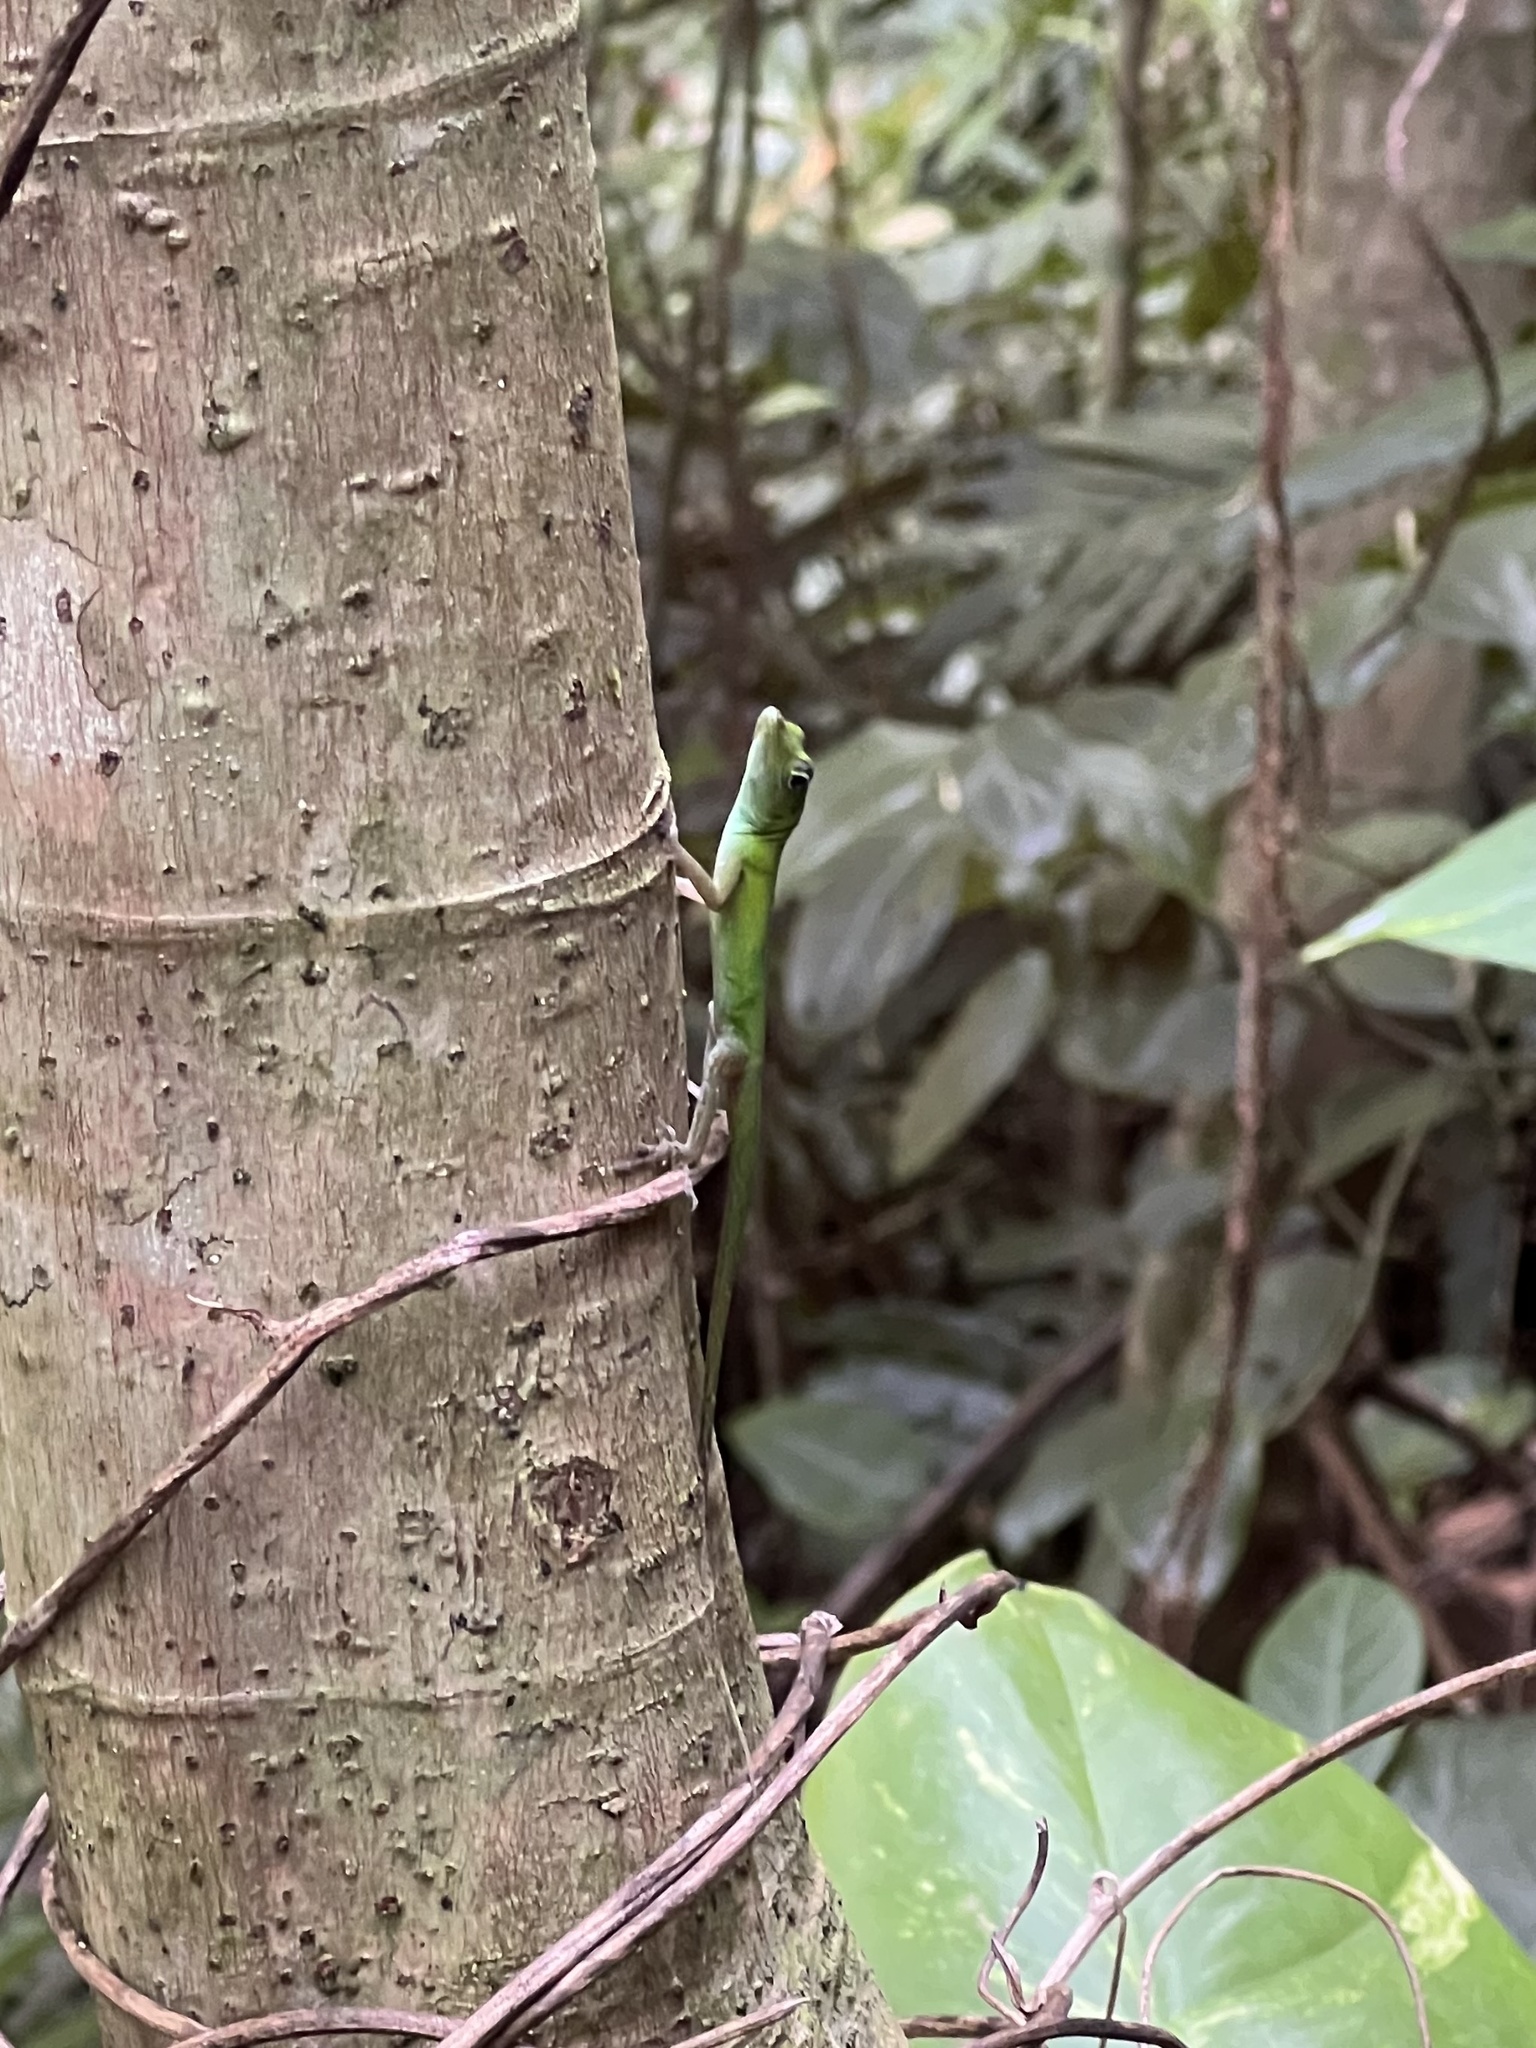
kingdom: Animalia
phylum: Chordata
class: Squamata
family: Dactyloidae
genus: Anolis
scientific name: Anolis evermanni
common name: Emerald anole
